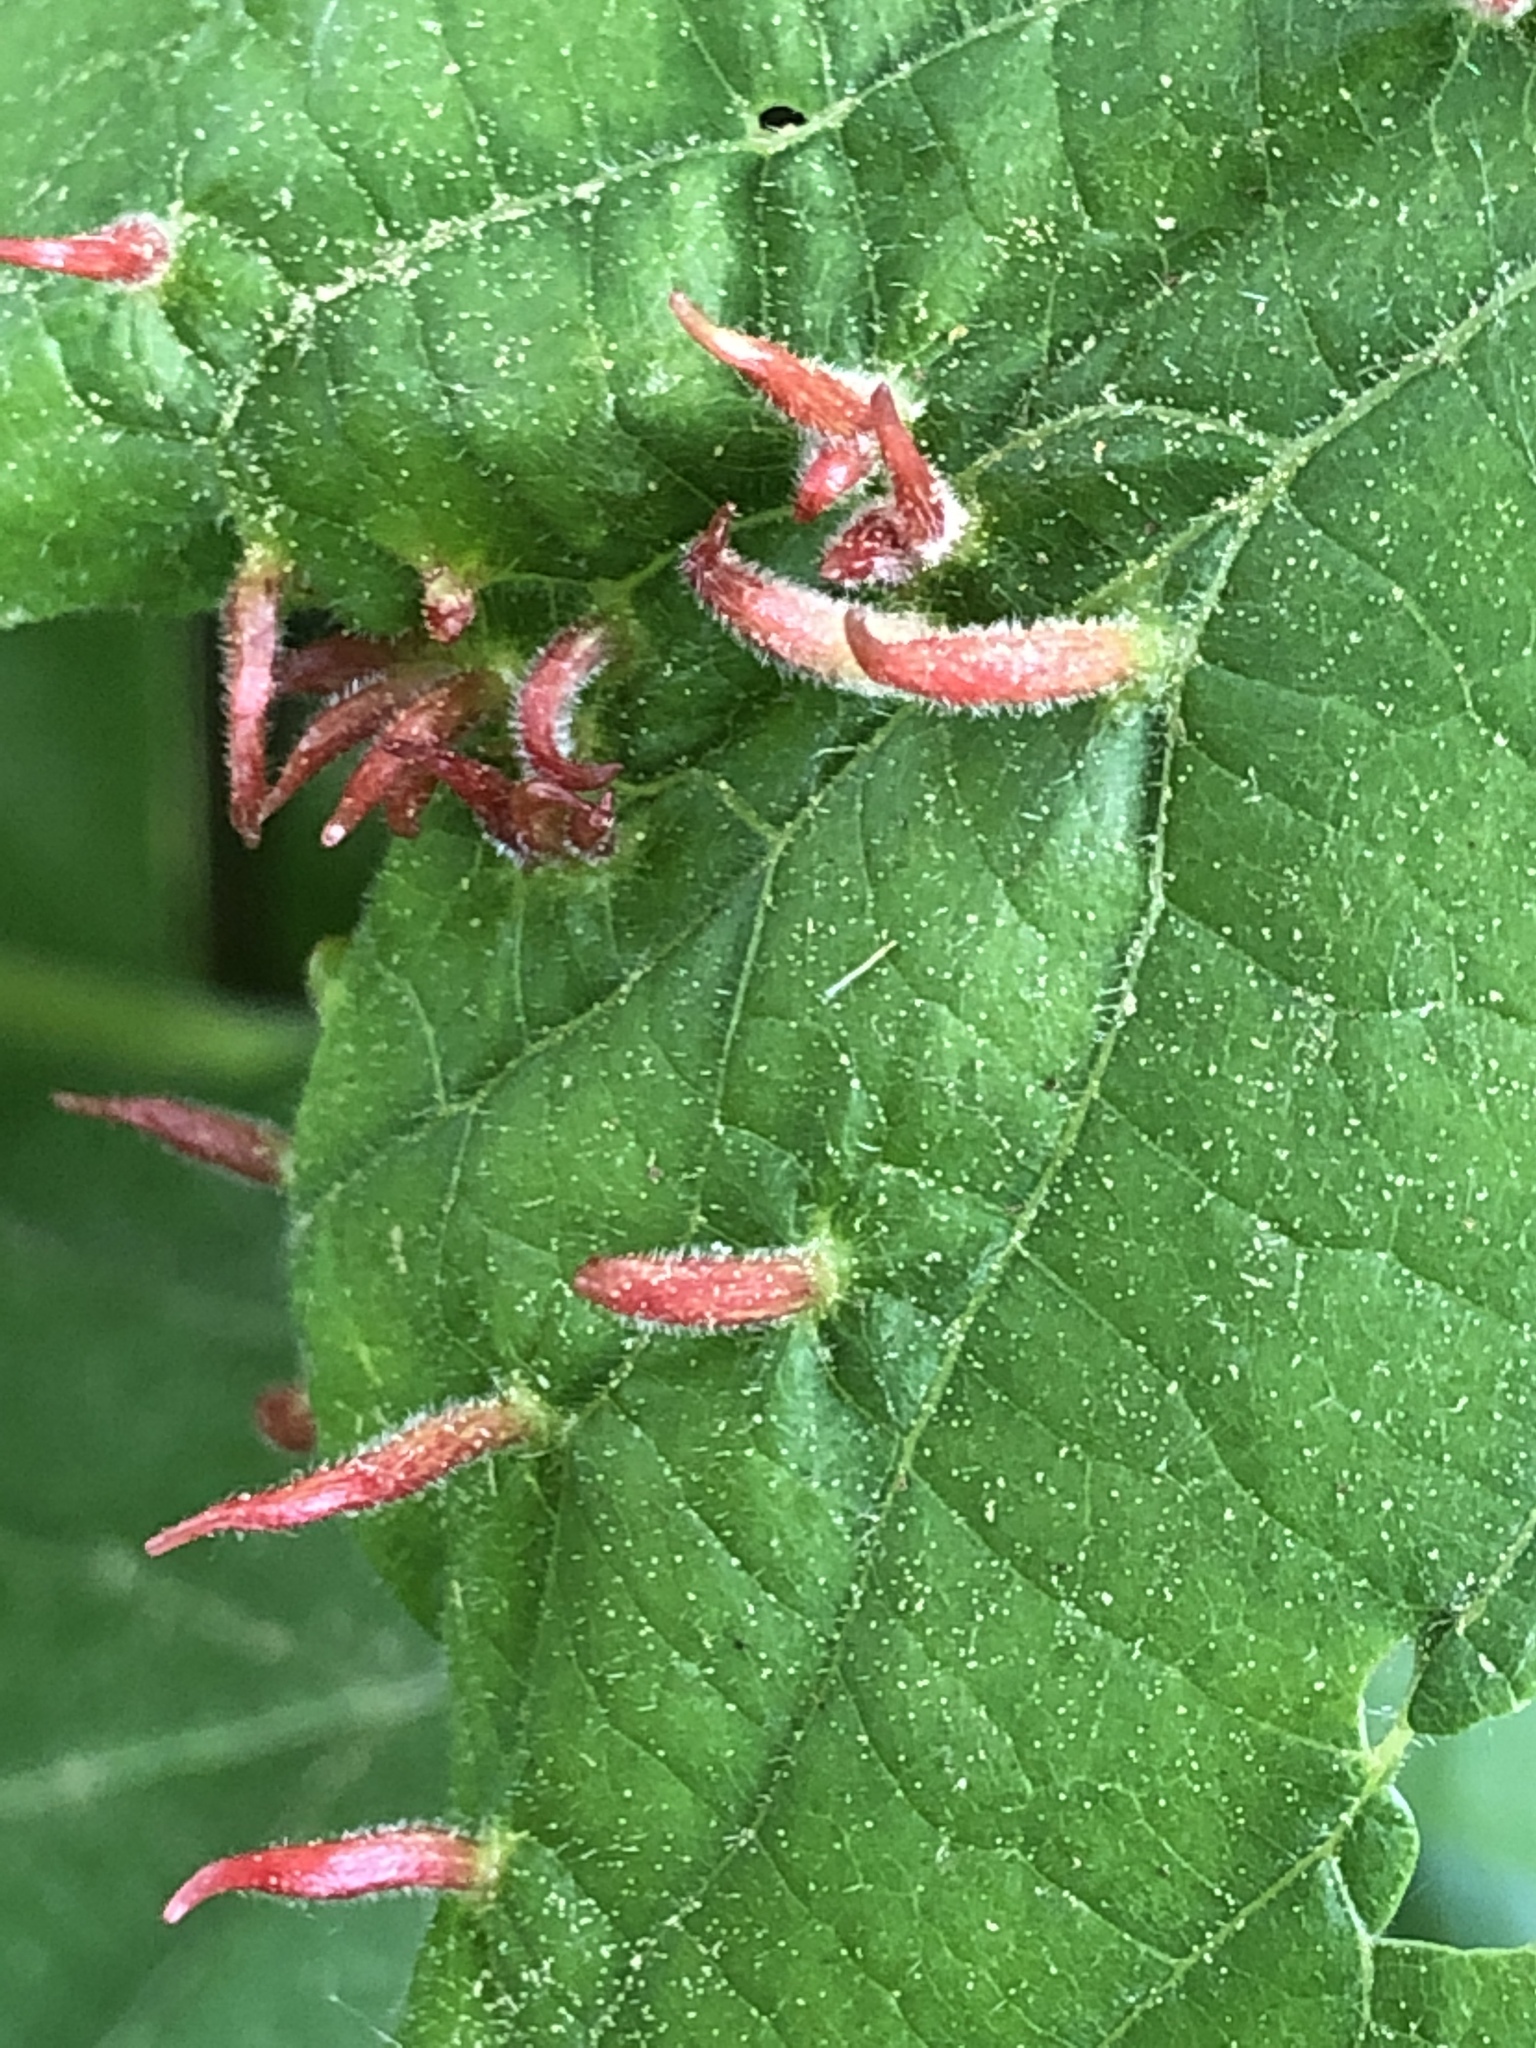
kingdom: Animalia
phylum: Arthropoda
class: Arachnida
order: Trombidiformes
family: Eriophyidae
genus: Eriophyes
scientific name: Eriophyes tiliae
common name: Red nail gall mite
